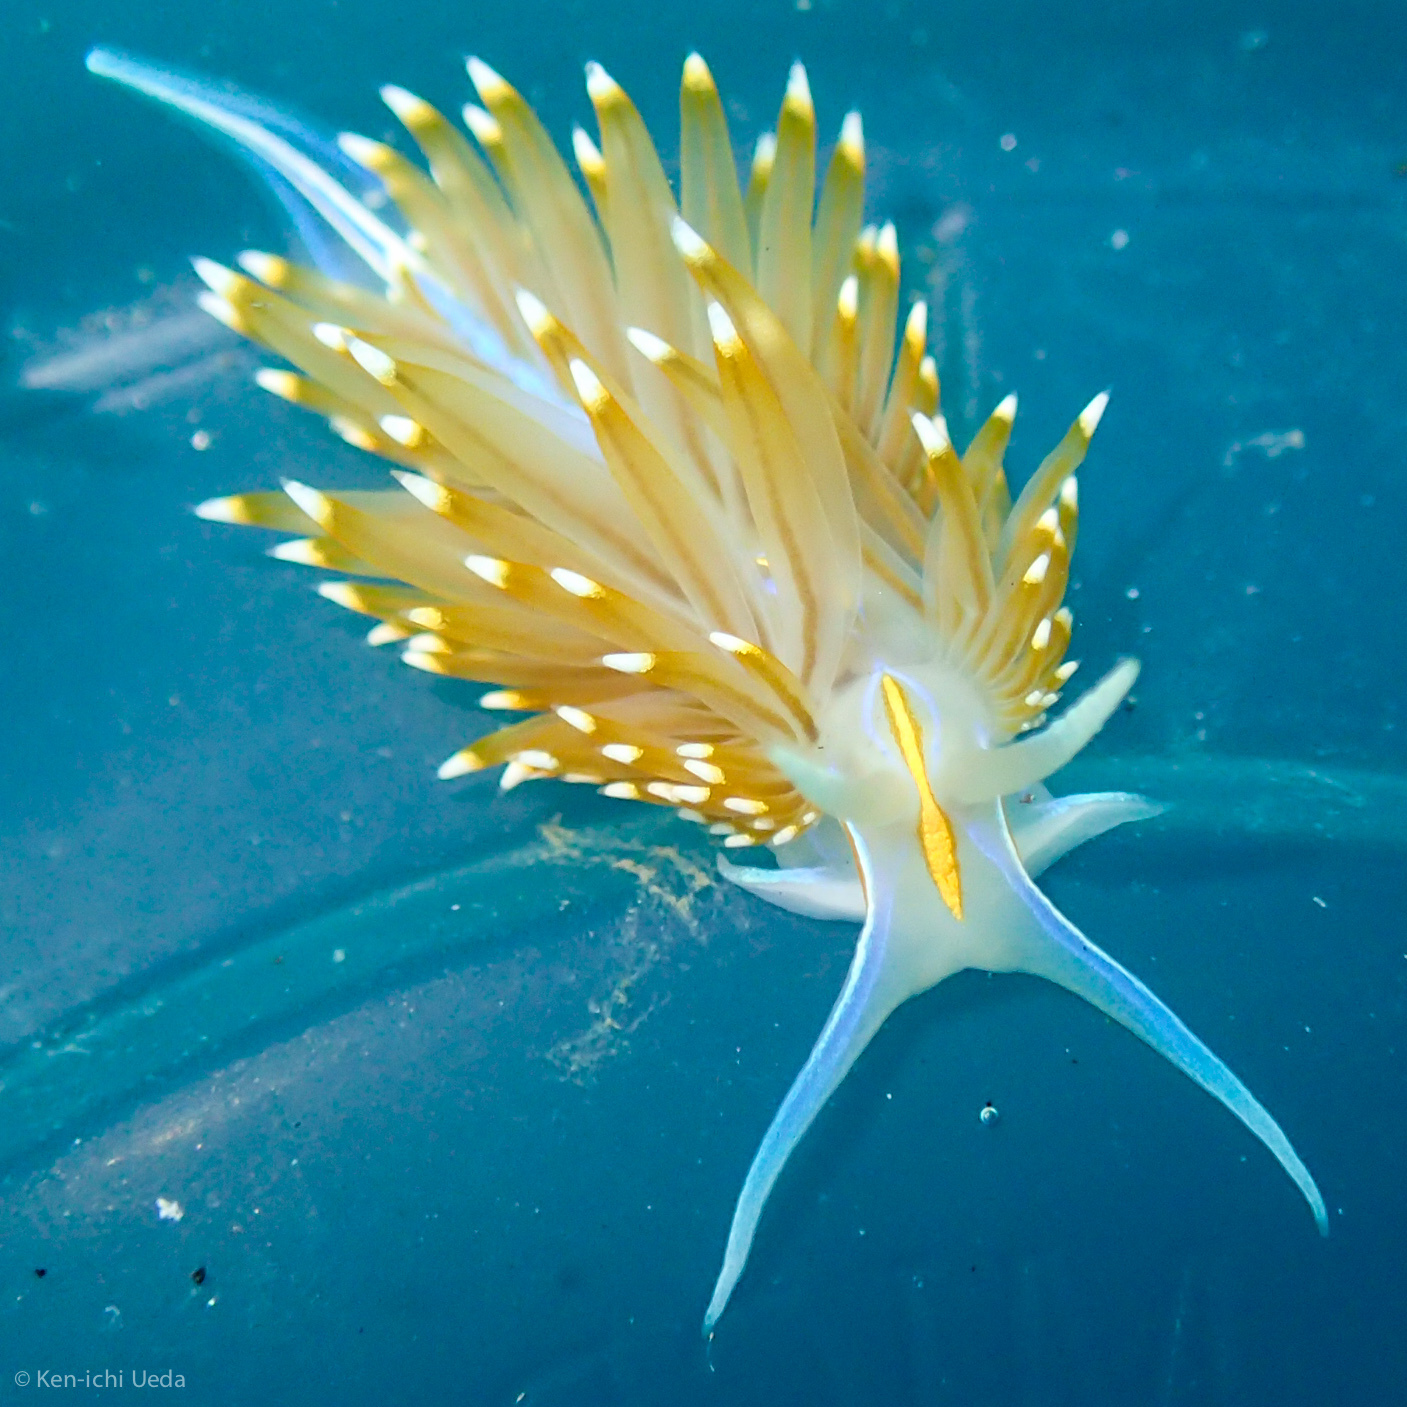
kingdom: Animalia
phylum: Mollusca
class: Gastropoda
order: Nudibranchia
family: Myrrhinidae
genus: Hermissenda
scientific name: Hermissenda opalescens
